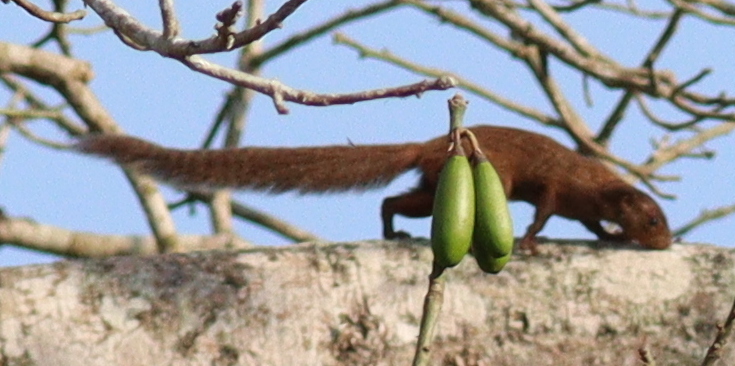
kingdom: Animalia
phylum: Chordata
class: Mammalia
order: Rodentia
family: Sciuridae
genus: Heliosciurus
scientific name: Heliosciurus rufobrachium
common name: Red-legged sun squirrel
